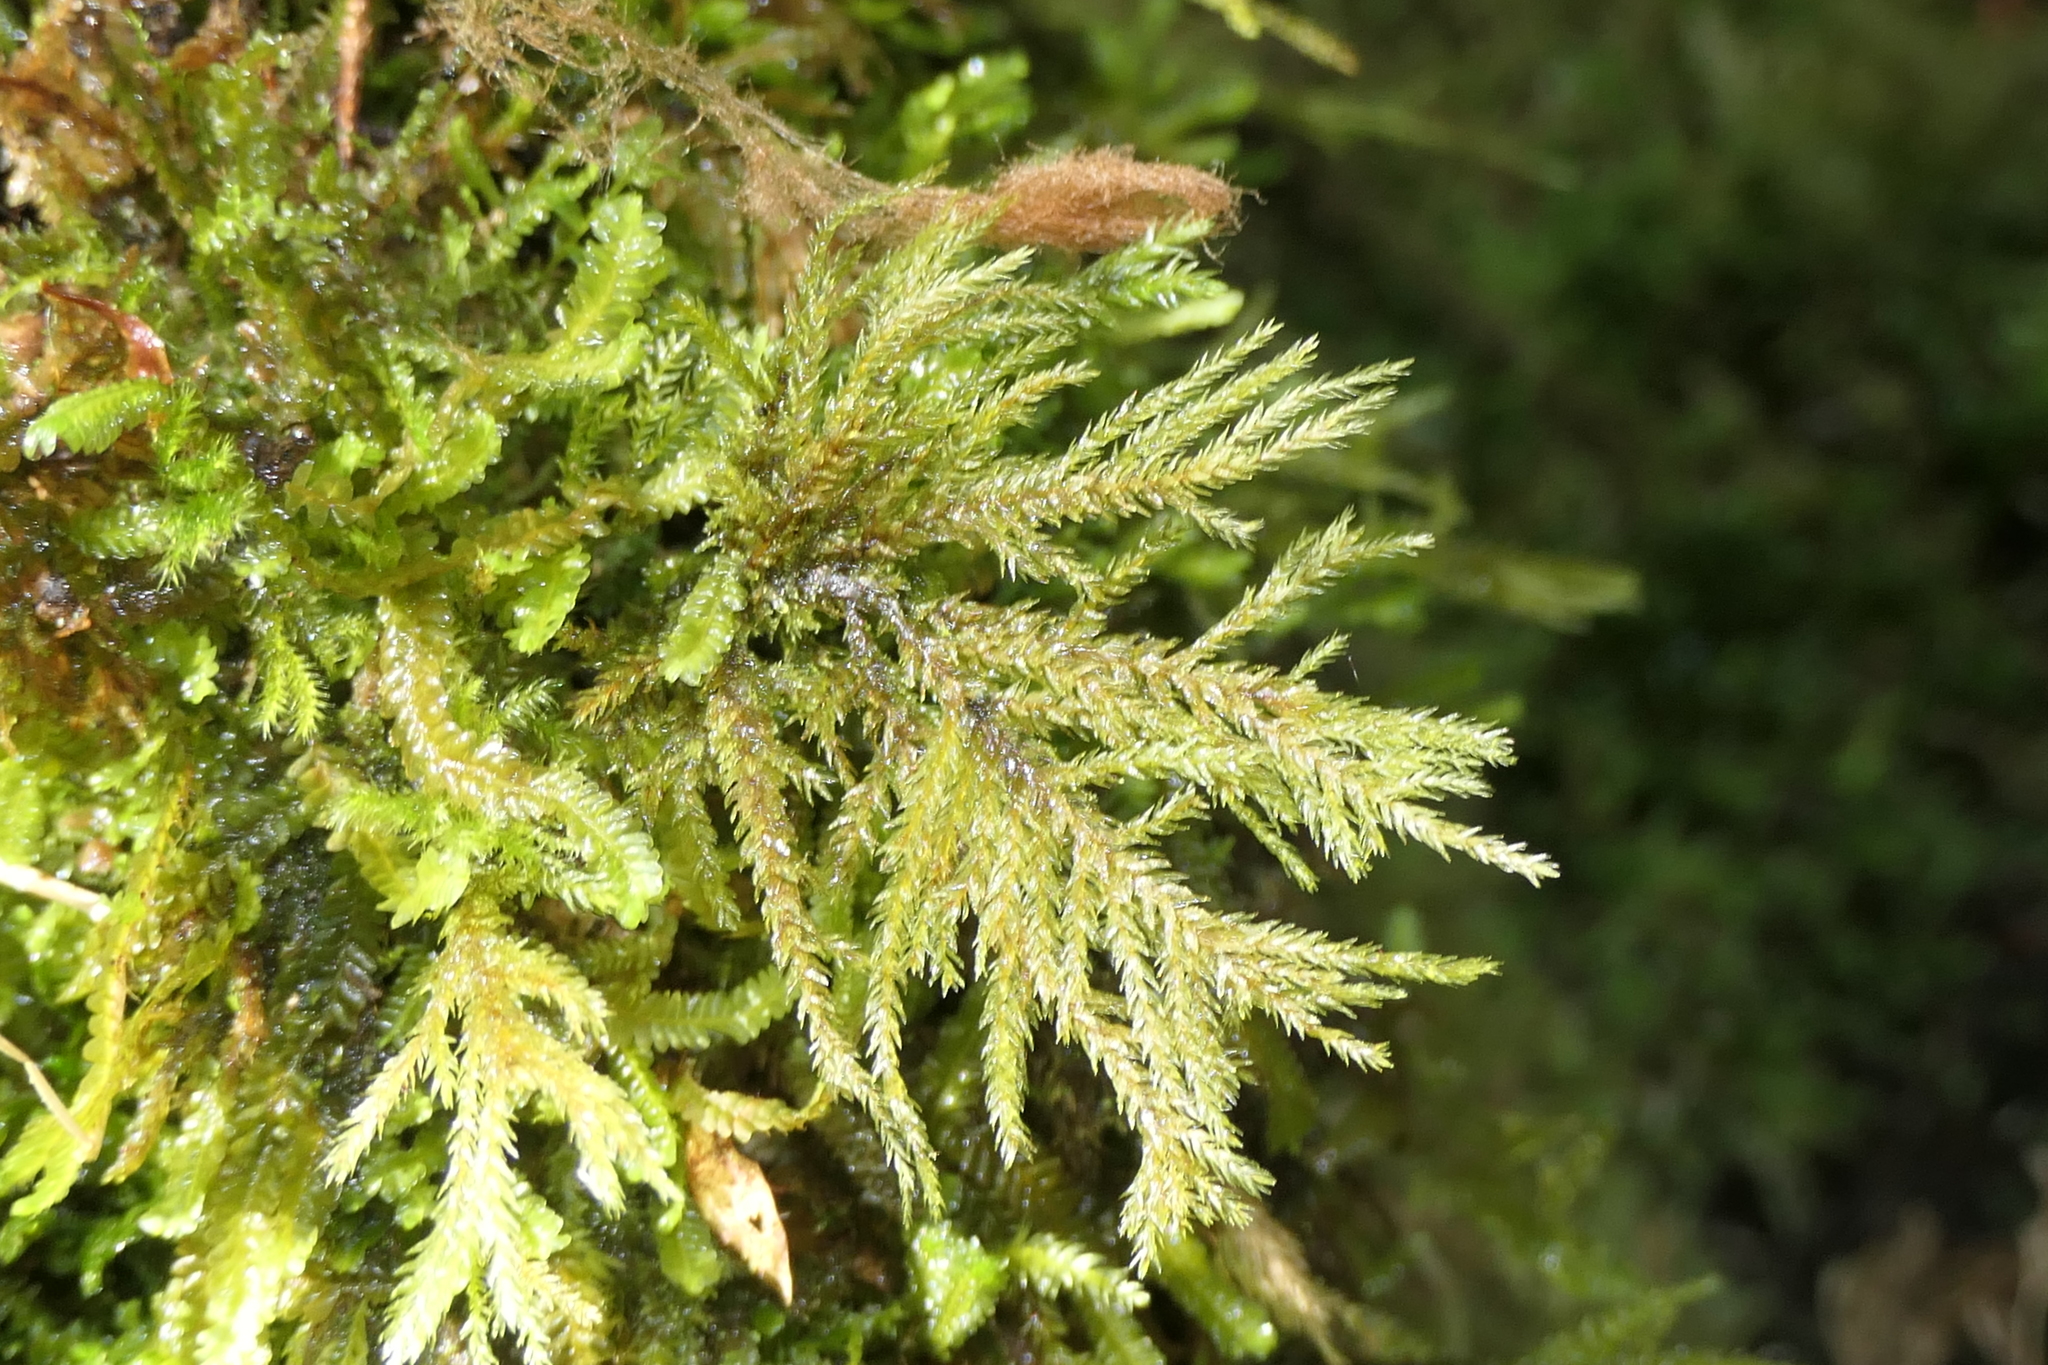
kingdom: Plantae
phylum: Bryophyta
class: Bryopsida
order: Hypnales
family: Neckeraceae
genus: Thamnobryum
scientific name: Thamnobryum alopecurum
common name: Fox-tail feather-moss
